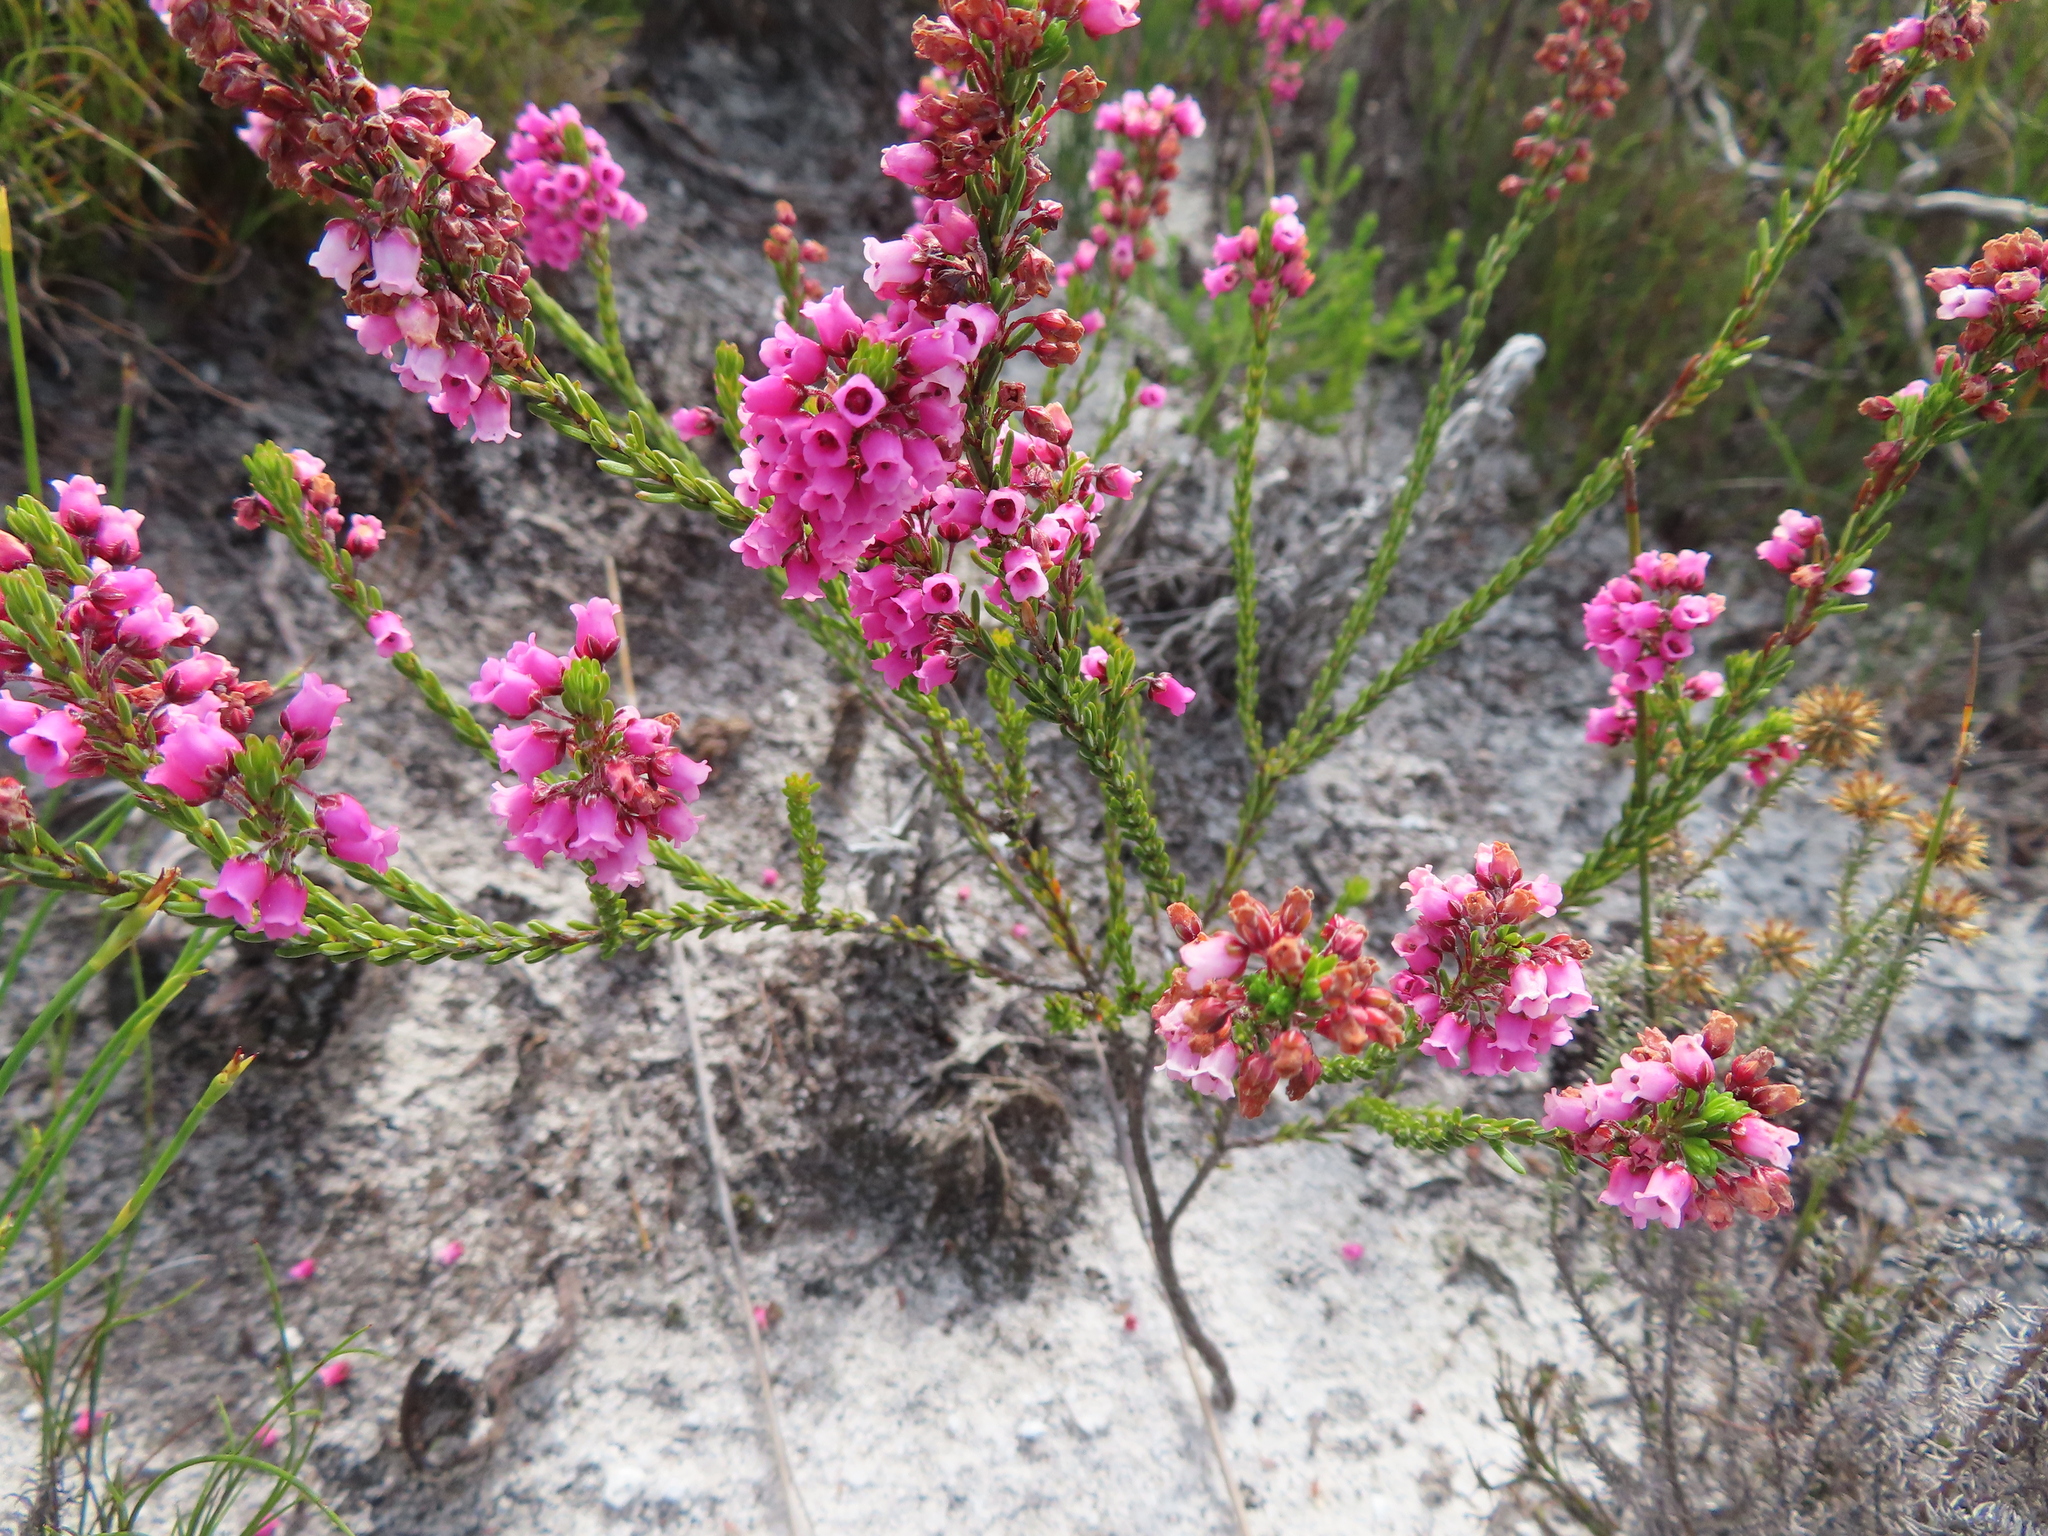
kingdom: Plantae
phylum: Tracheophyta
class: Magnoliopsida
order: Ericales
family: Ericaceae
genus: Erica
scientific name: Erica pulchella
